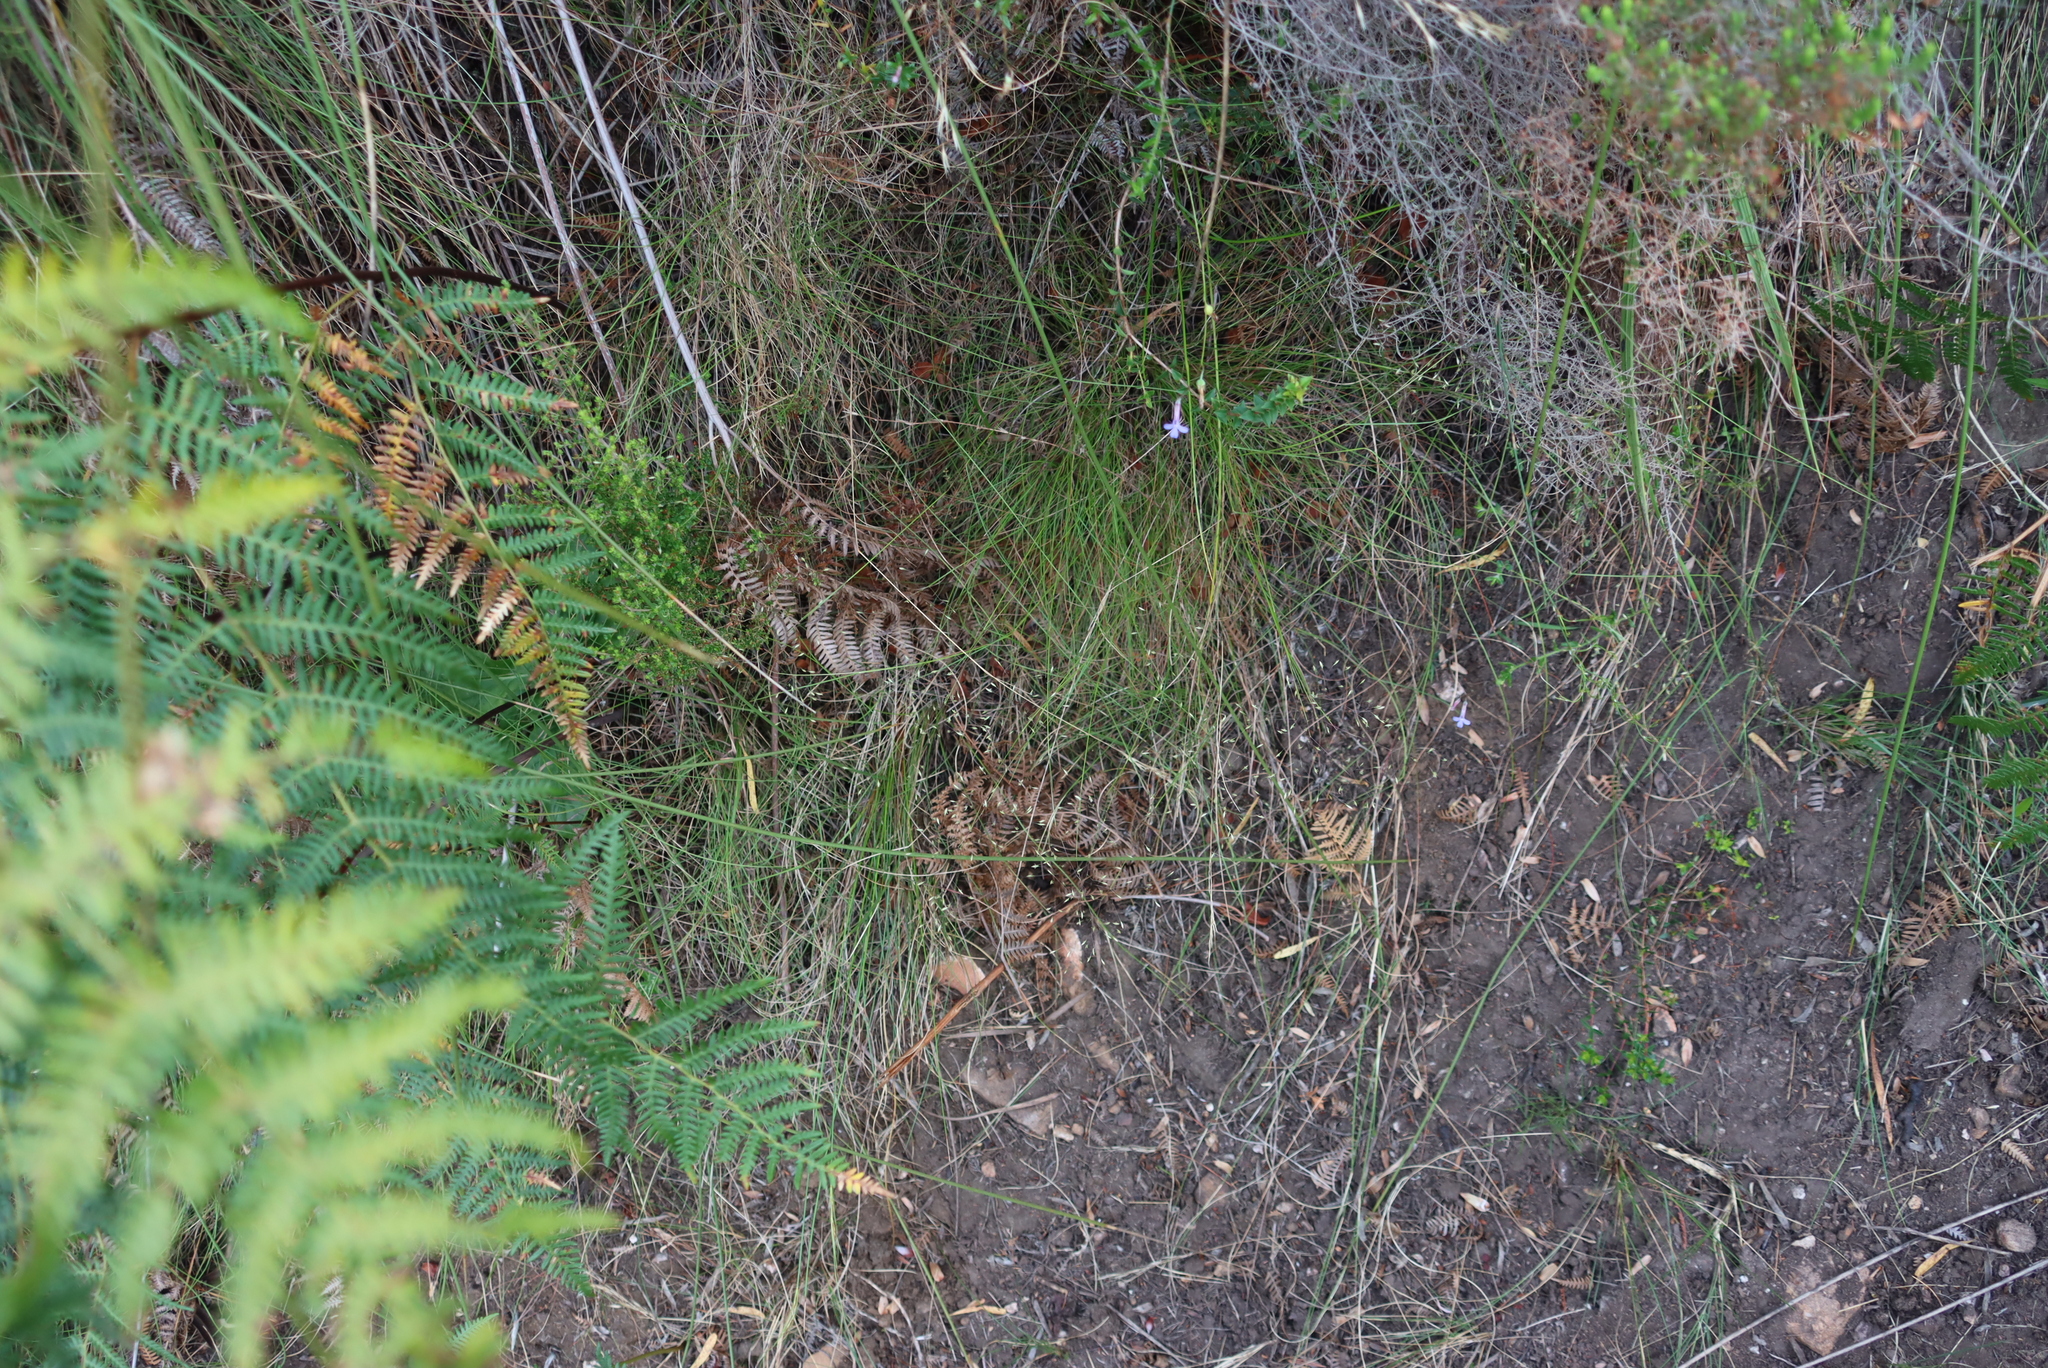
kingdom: Plantae
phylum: Tracheophyta
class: Magnoliopsida
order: Asterales
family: Campanulaceae
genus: Lobelia
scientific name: Lobelia neglecta
